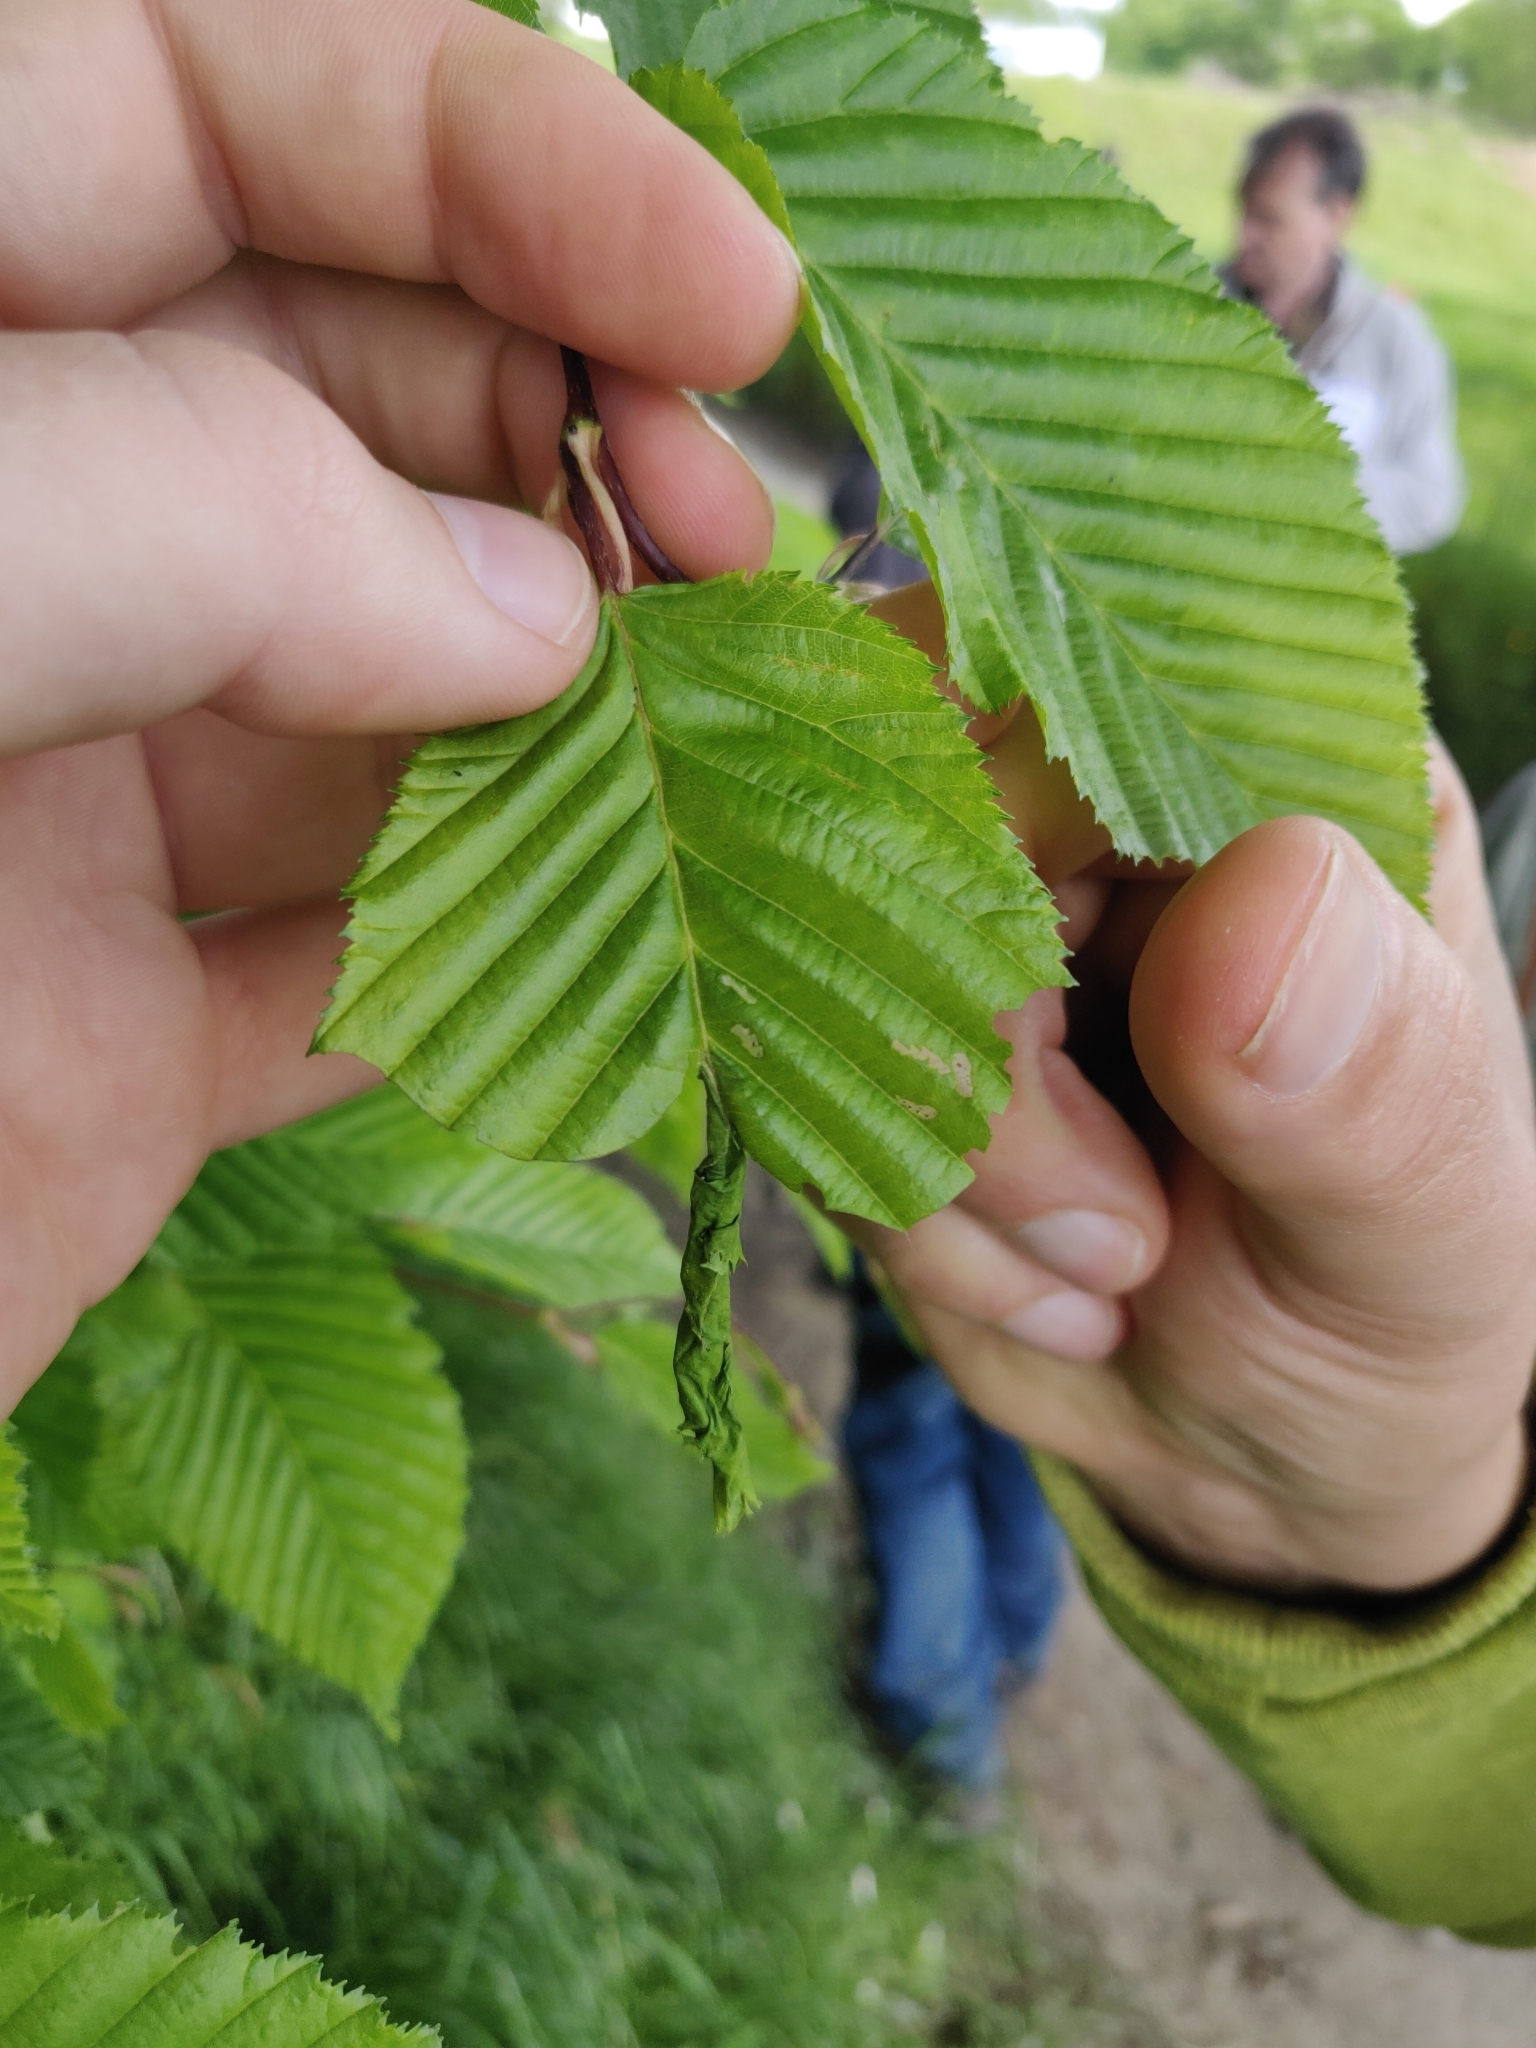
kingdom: Animalia
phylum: Arthropoda
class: Insecta
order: Coleoptera
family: Attelabidae
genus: Deporaus
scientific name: Deporaus betulae
